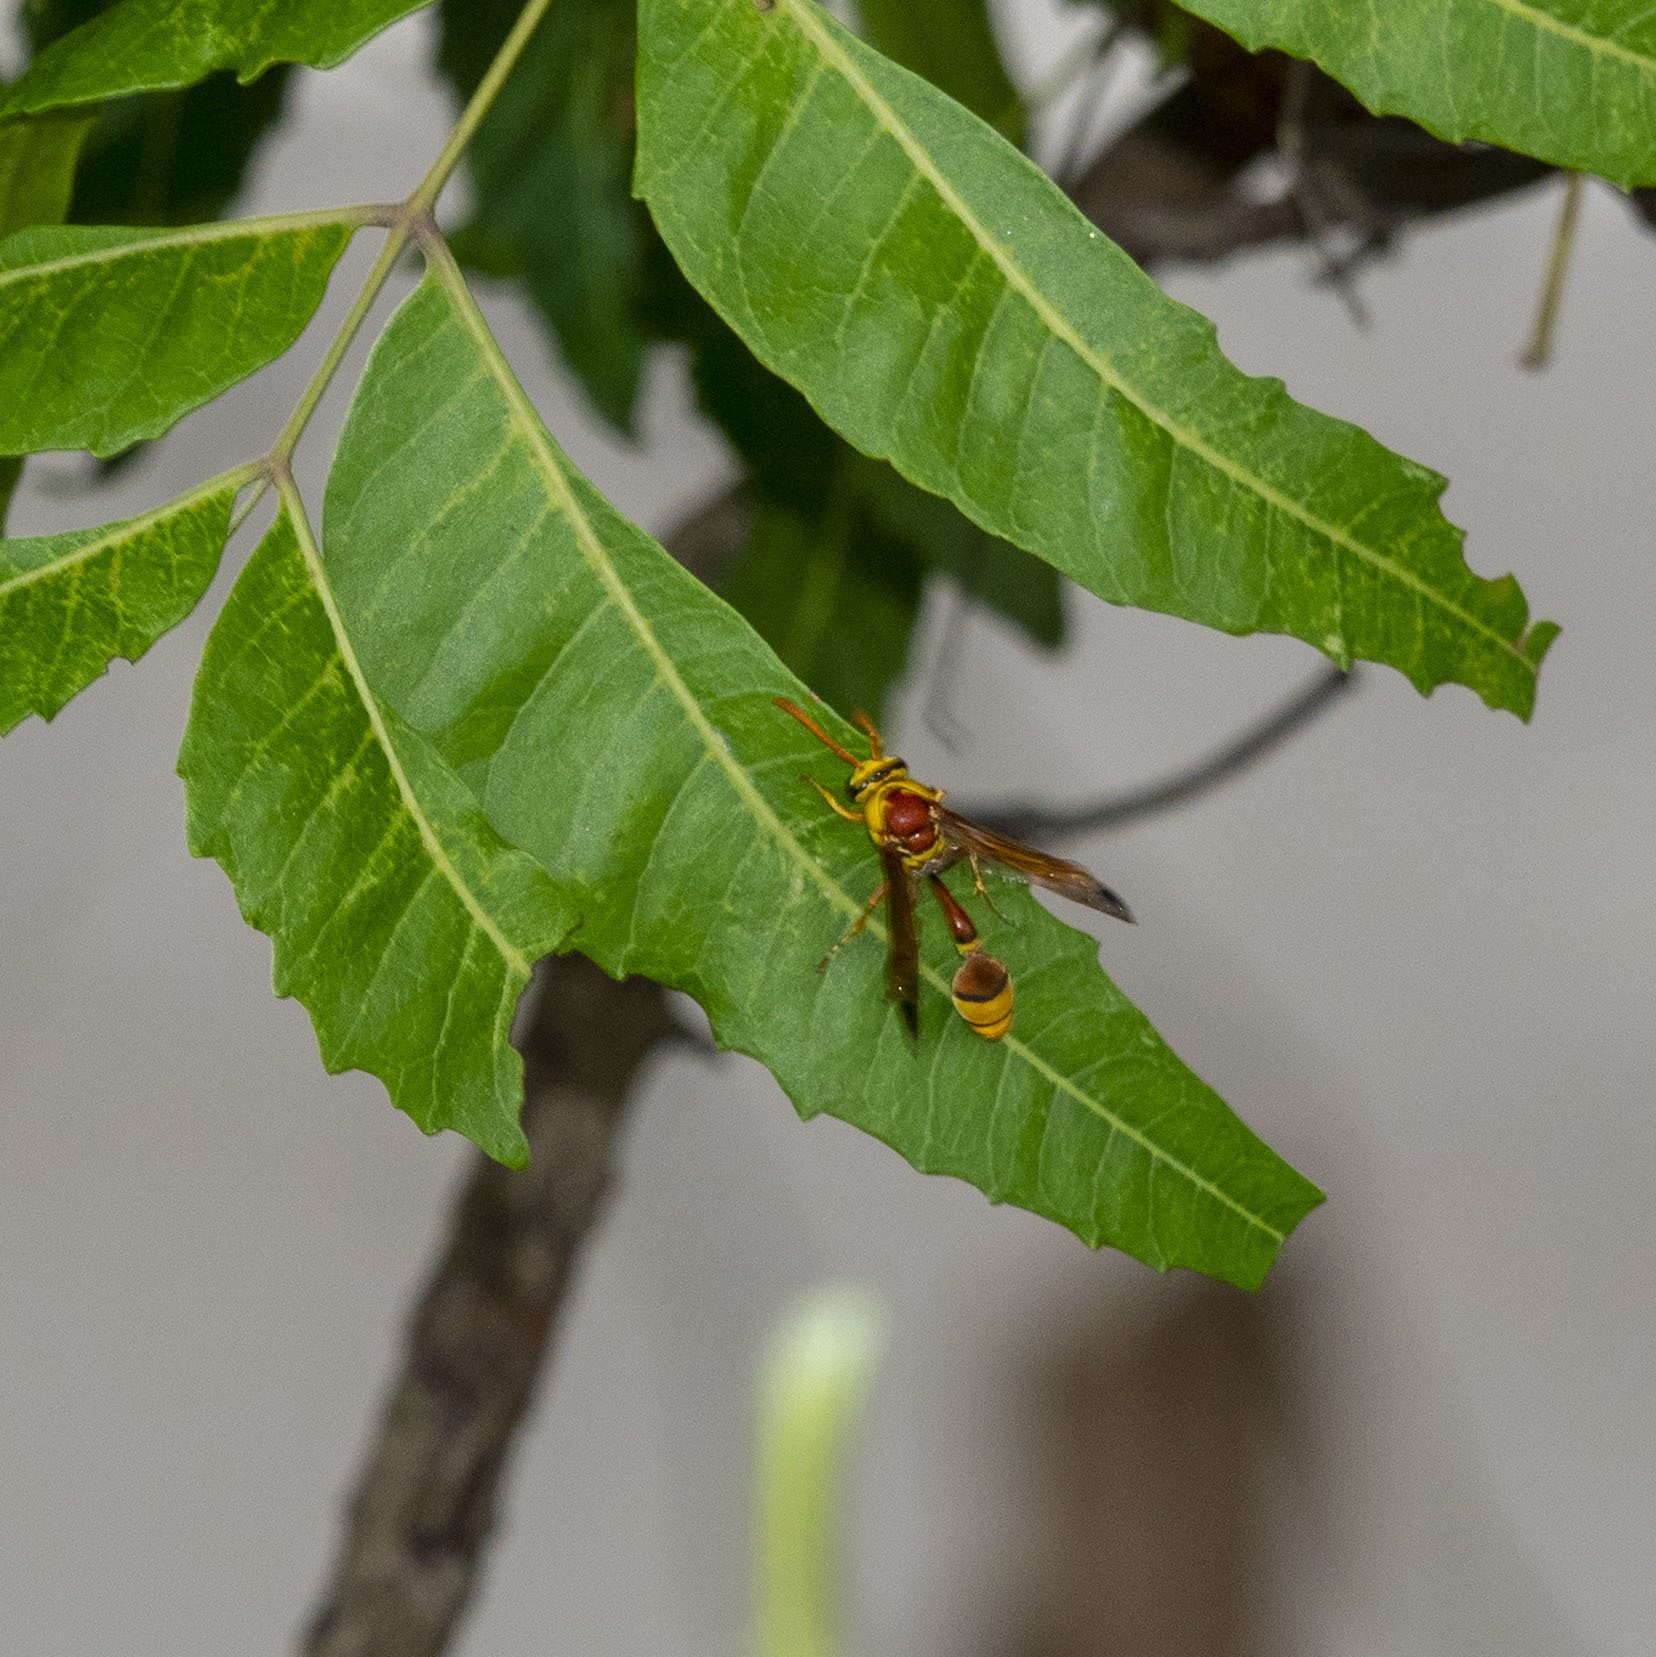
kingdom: Animalia
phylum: Arthropoda
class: Insecta
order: Hymenoptera
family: Eumenidae
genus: Delta
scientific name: Delta esuriens
